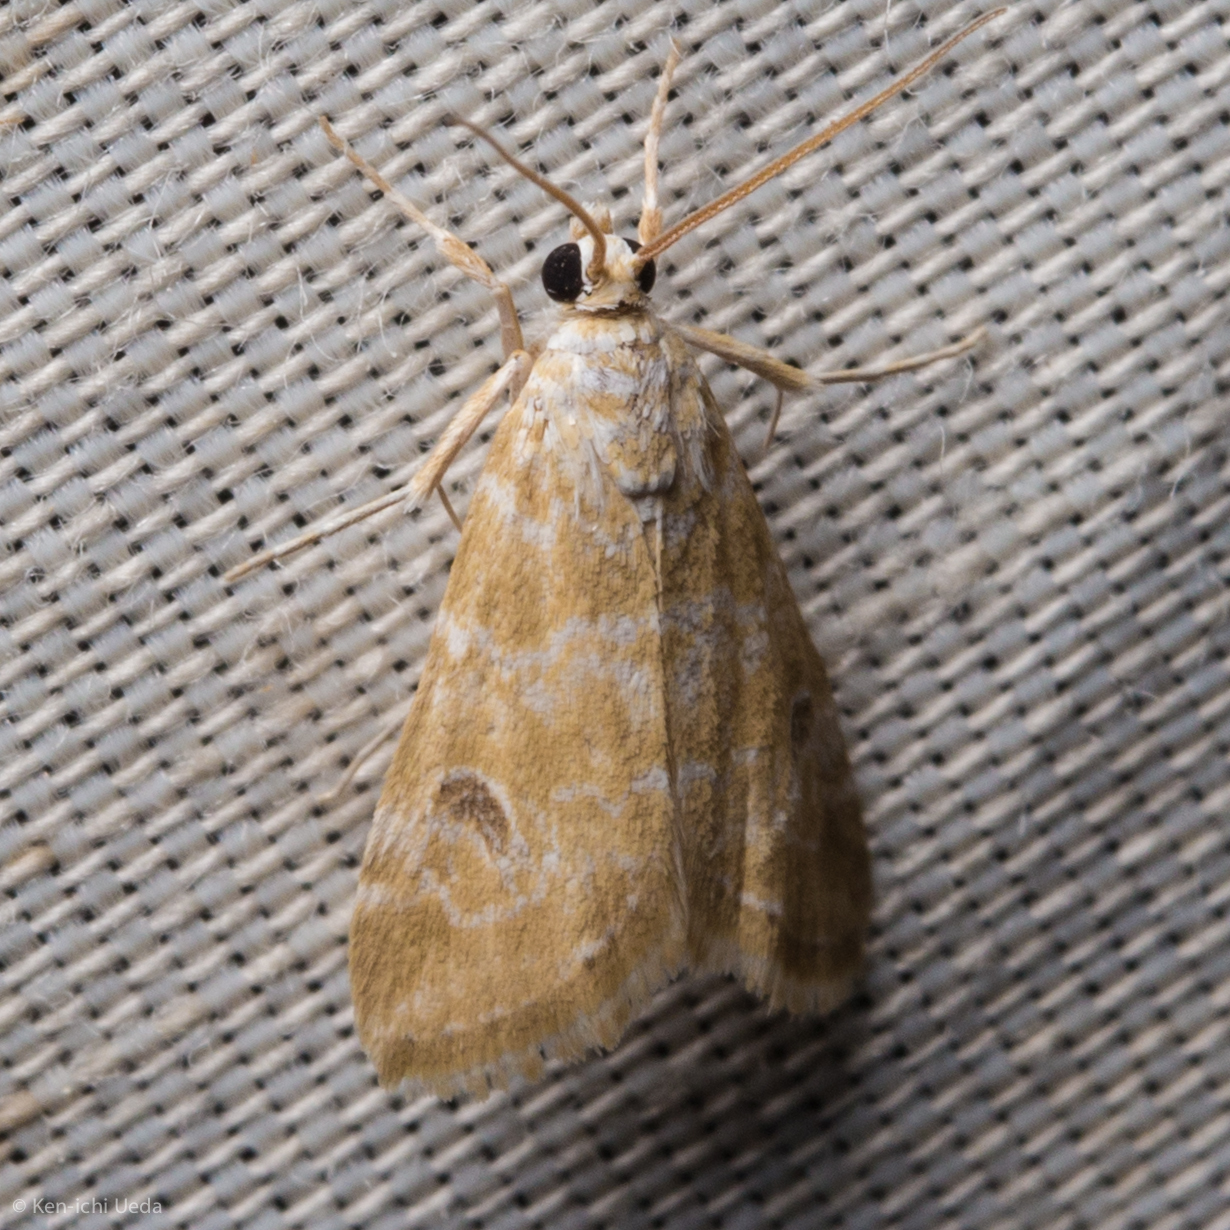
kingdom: Animalia
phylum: Arthropoda
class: Insecta
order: Lepidoptera
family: Crambidae
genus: Hellula
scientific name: Hellula rogatalis
